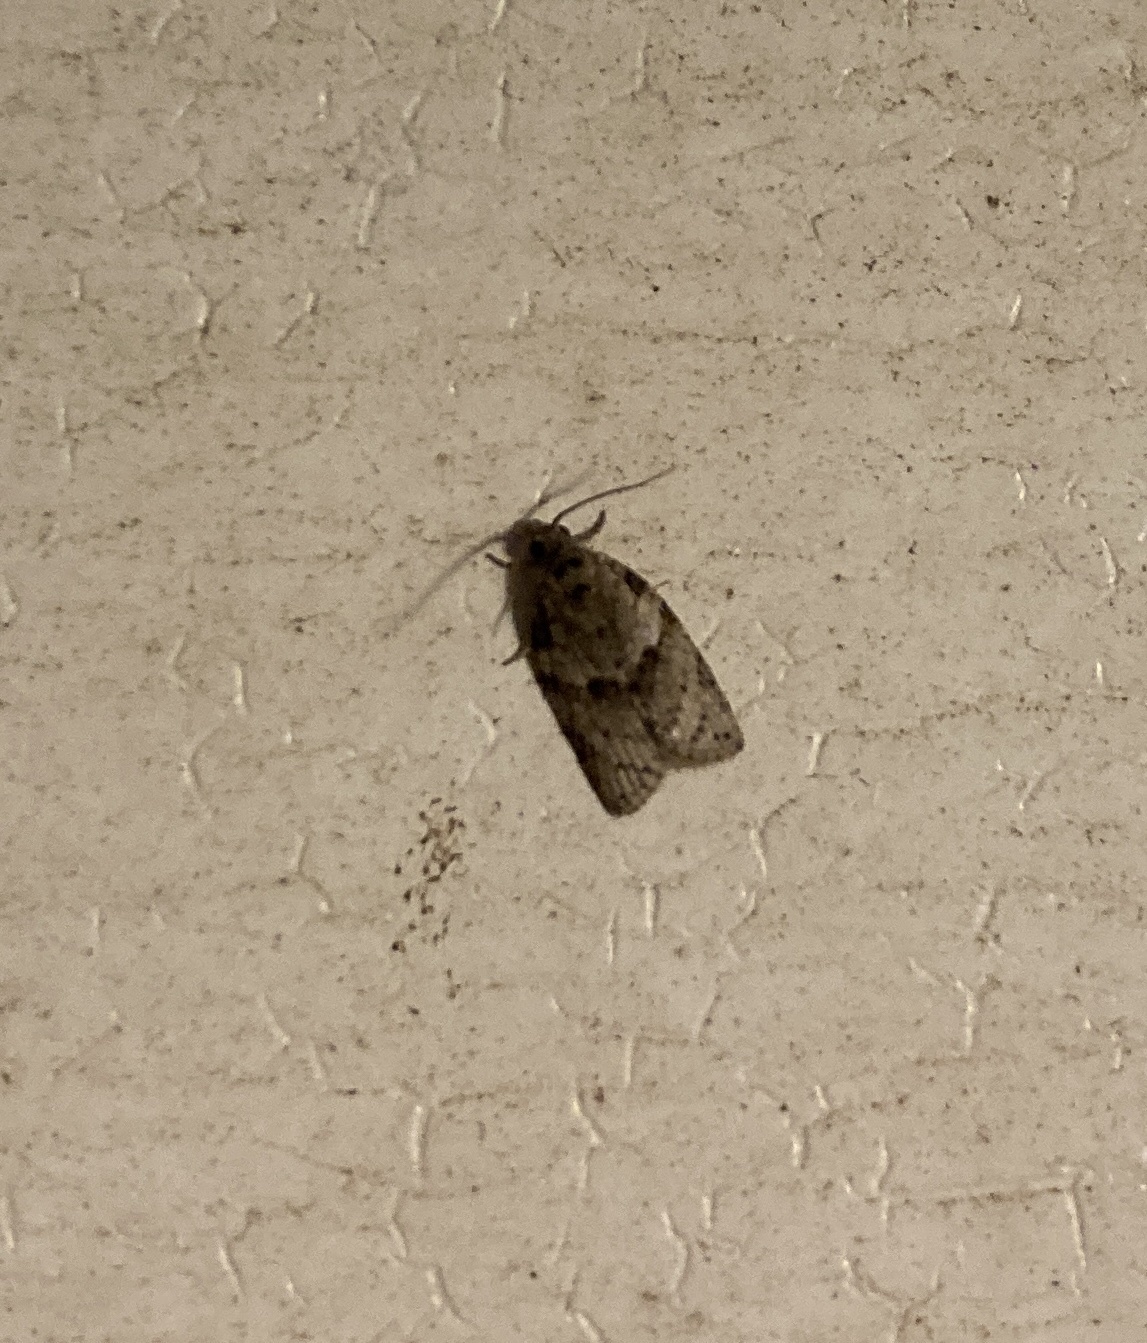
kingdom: Animalia
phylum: Arthropoda
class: Insecta
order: Lepidoptera
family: Tortricidae
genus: Isotenes
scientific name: Isotenes miserana
